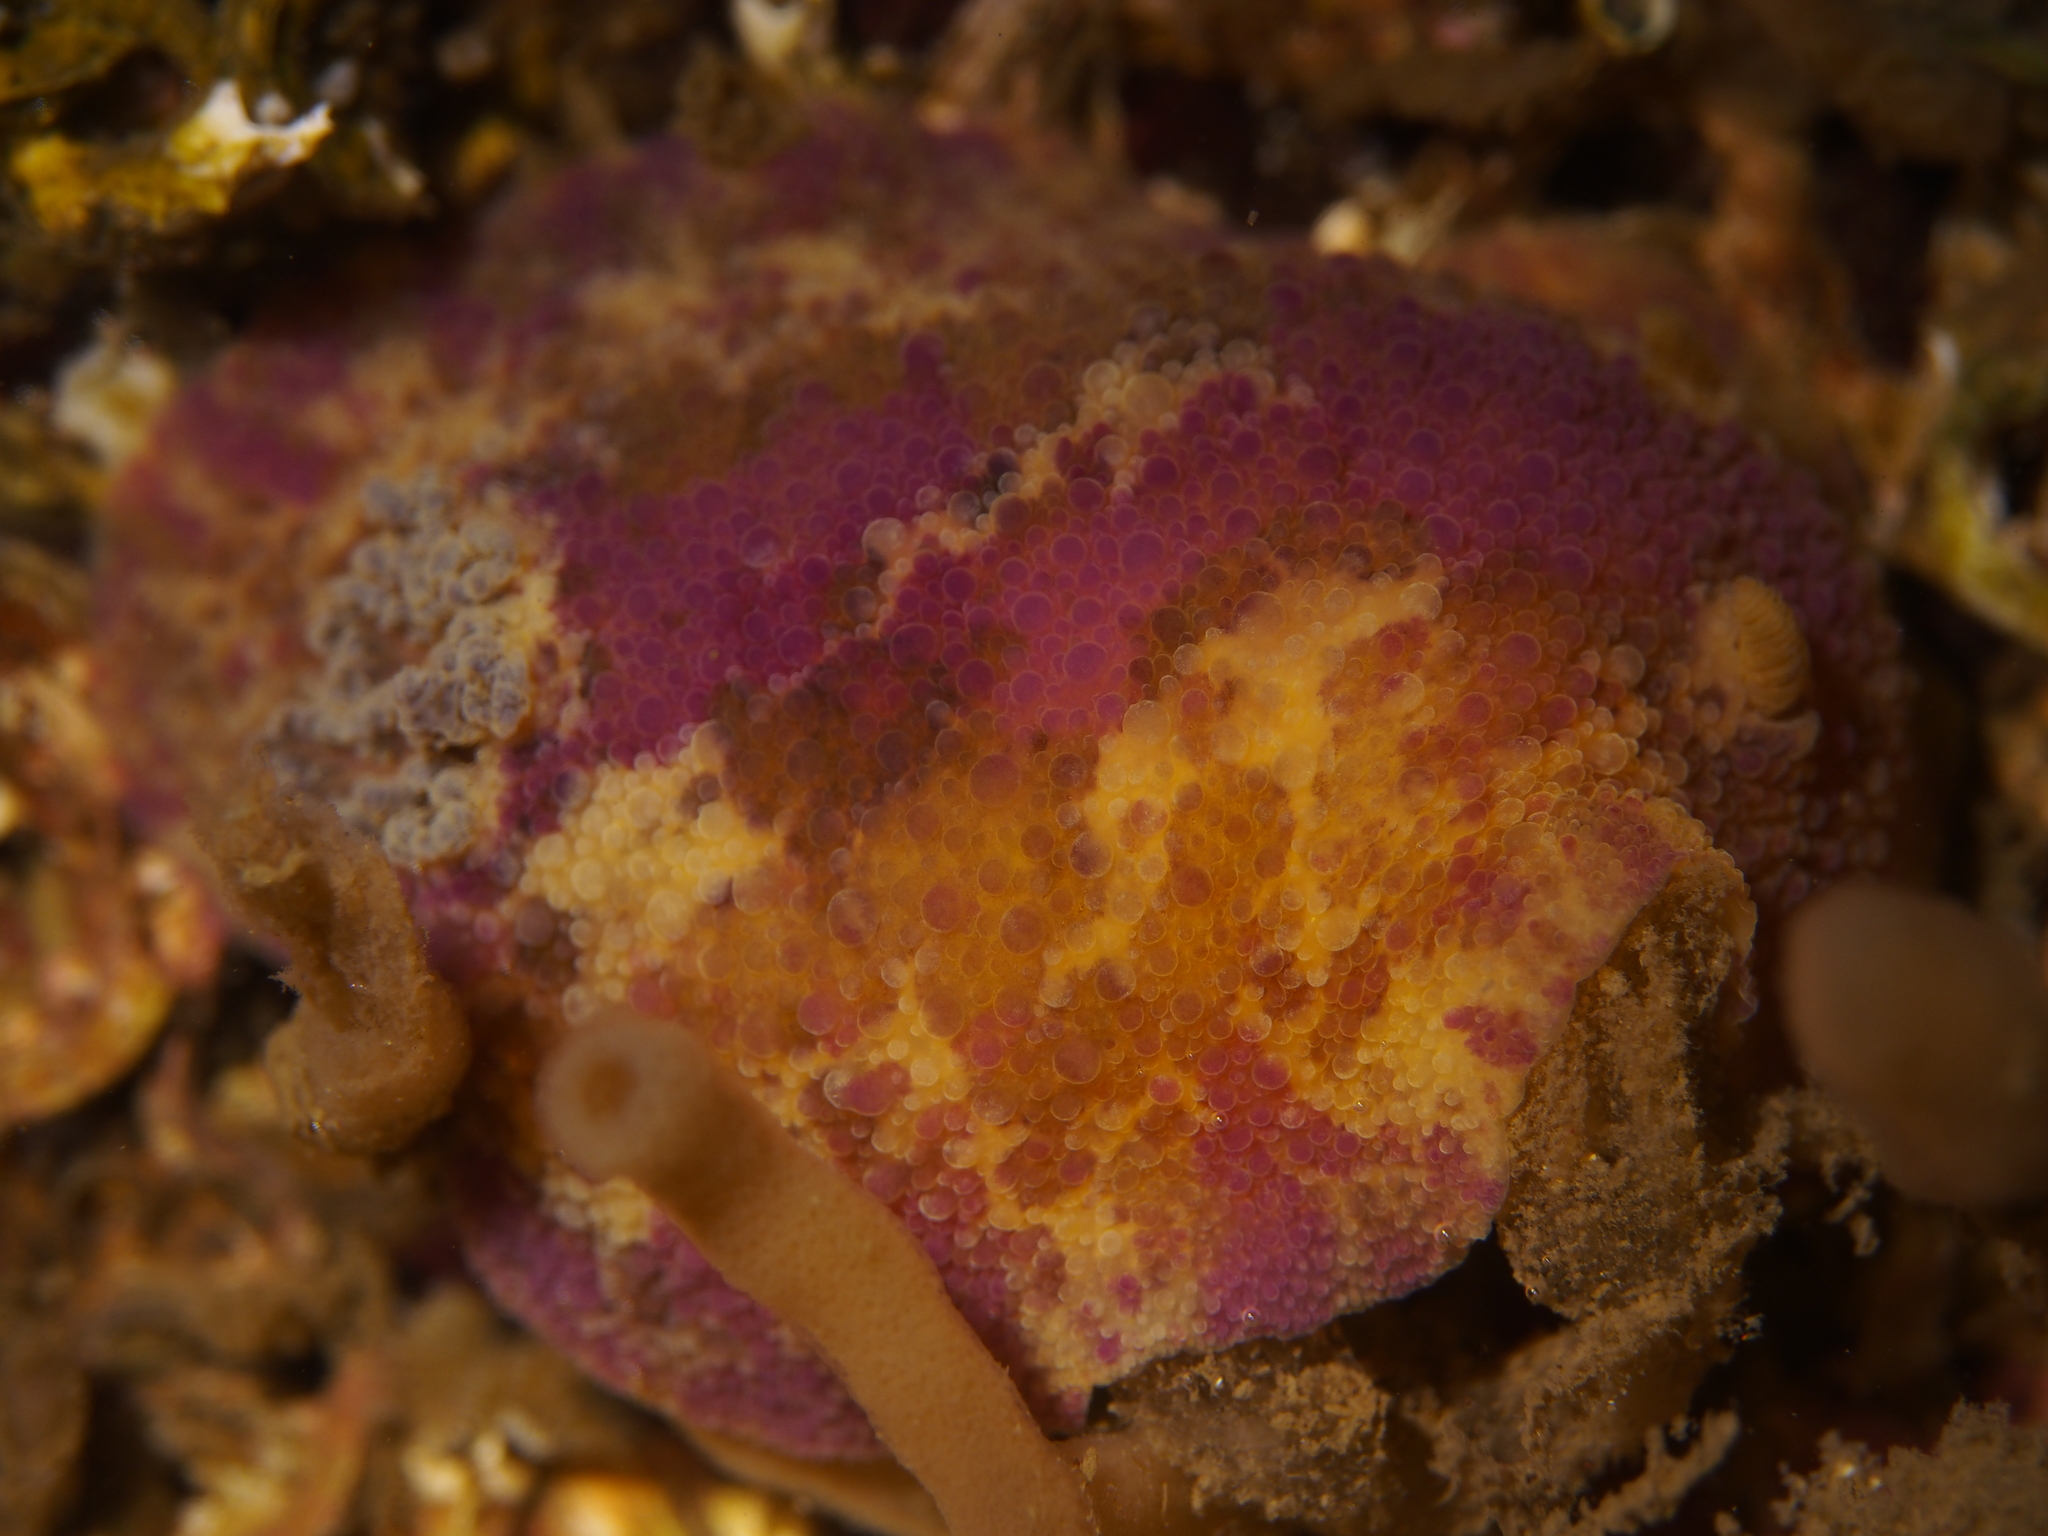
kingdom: Animalia
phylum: Mollusca
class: Gastropoda
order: Nudibranchia
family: Dorididae
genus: Doris
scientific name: Doris pseudoargus
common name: Sea lemon
